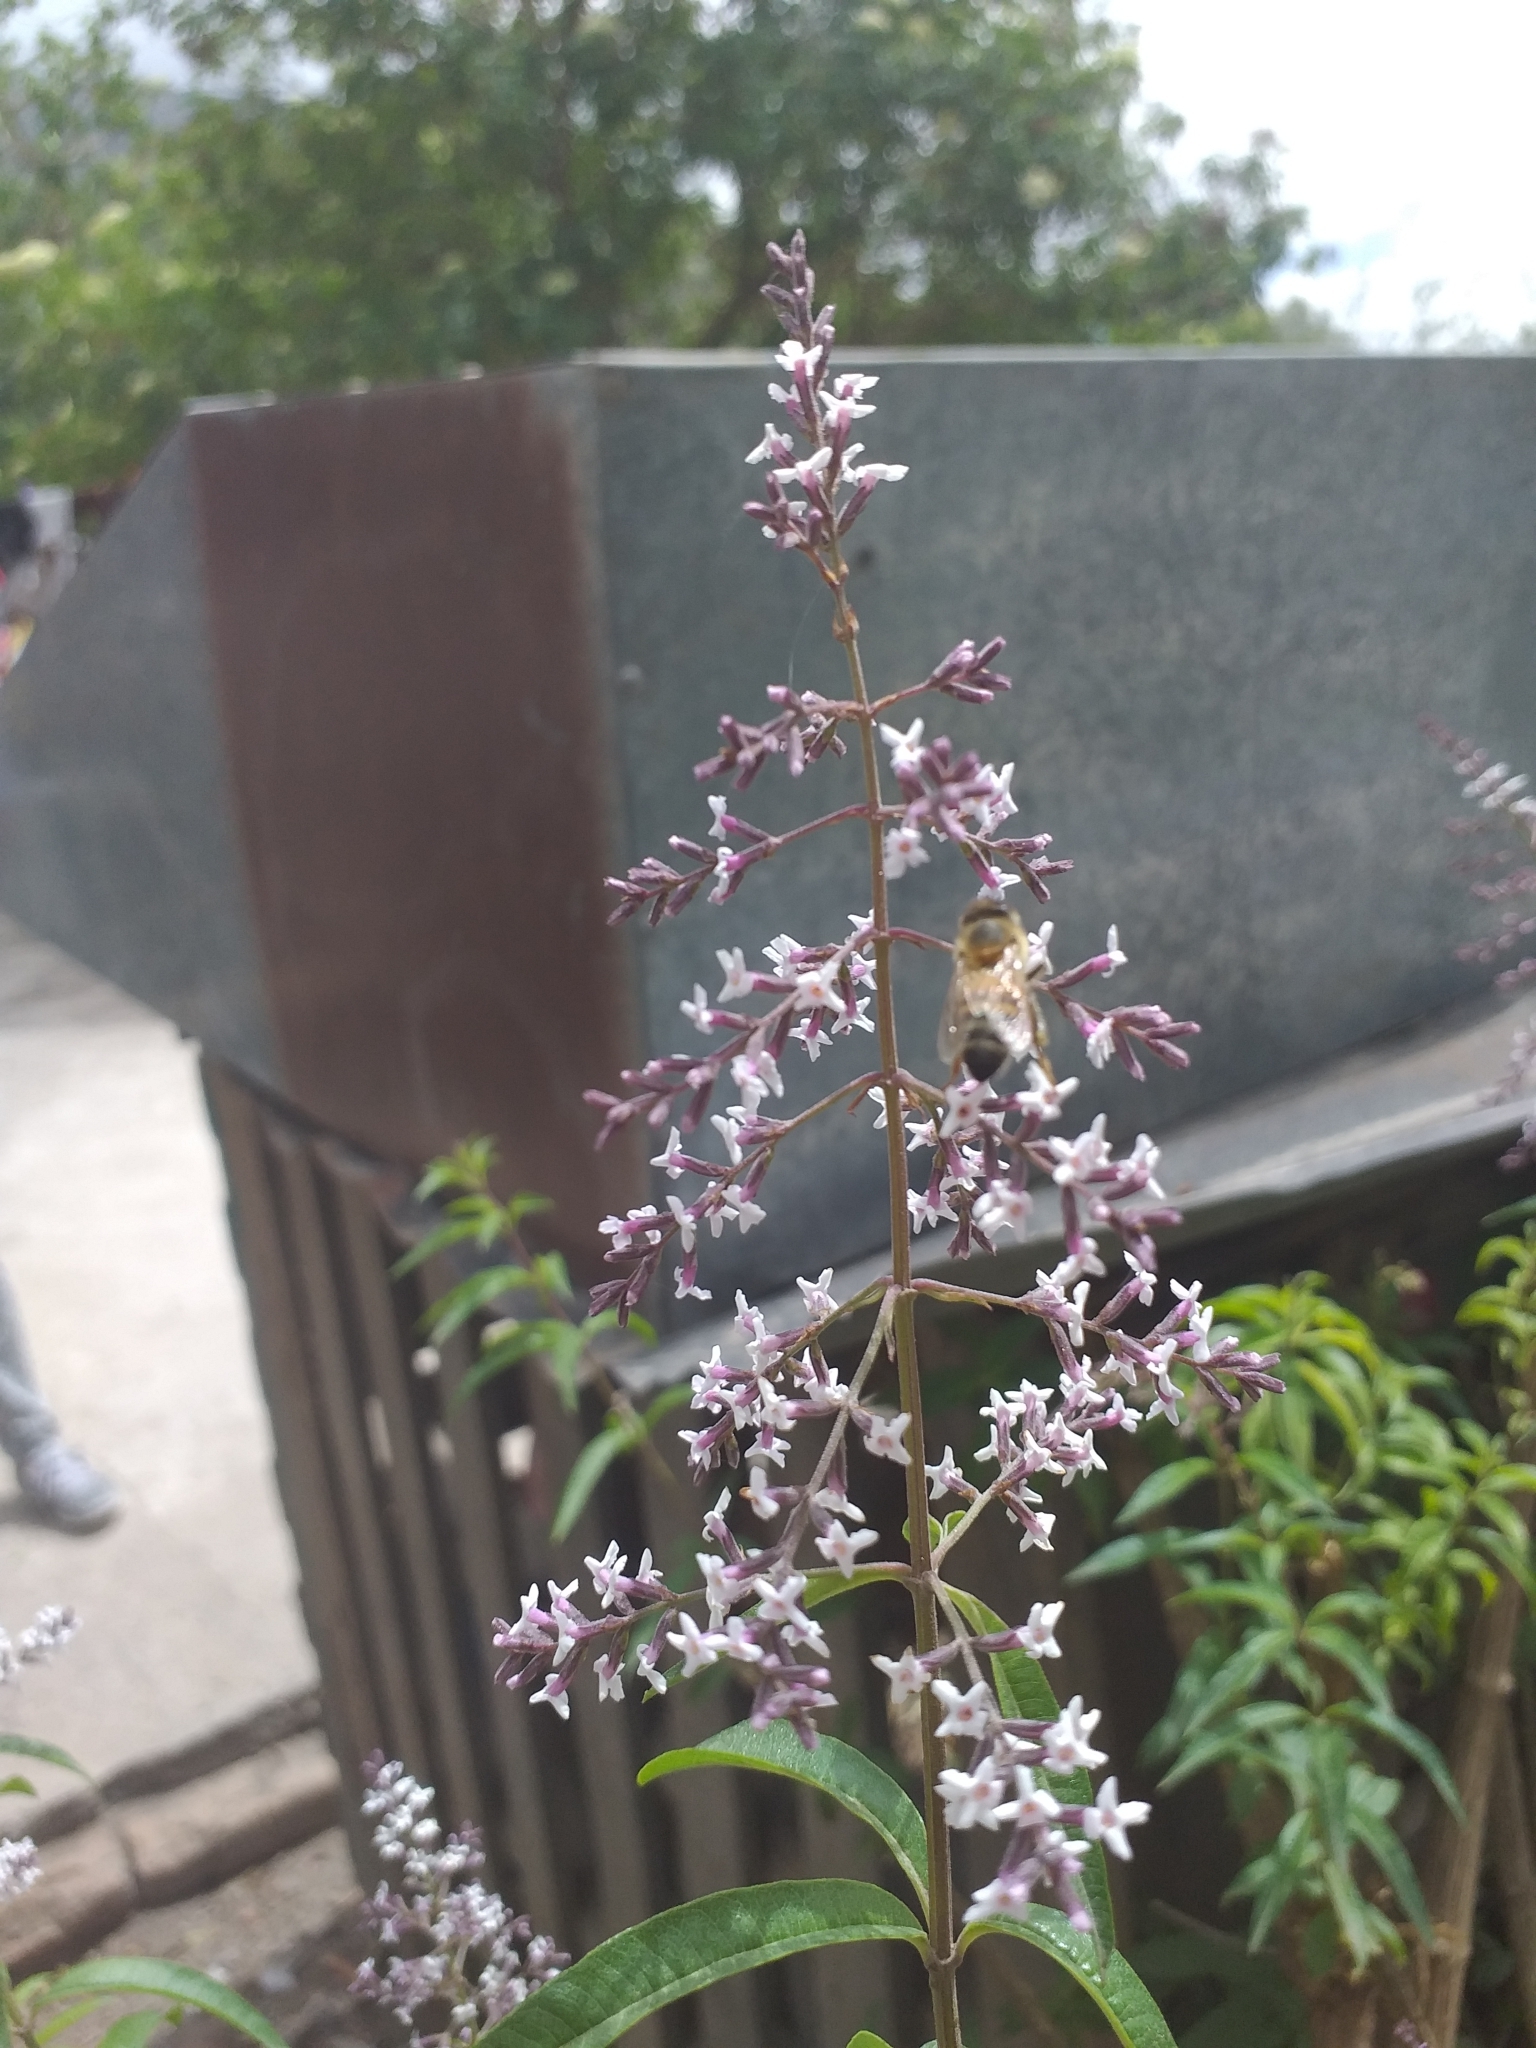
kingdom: Animalia
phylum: Arthropoda
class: Insecta
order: Hymenoptera
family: Apidae
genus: Apis
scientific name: Apis mellifera
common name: Honey bee
